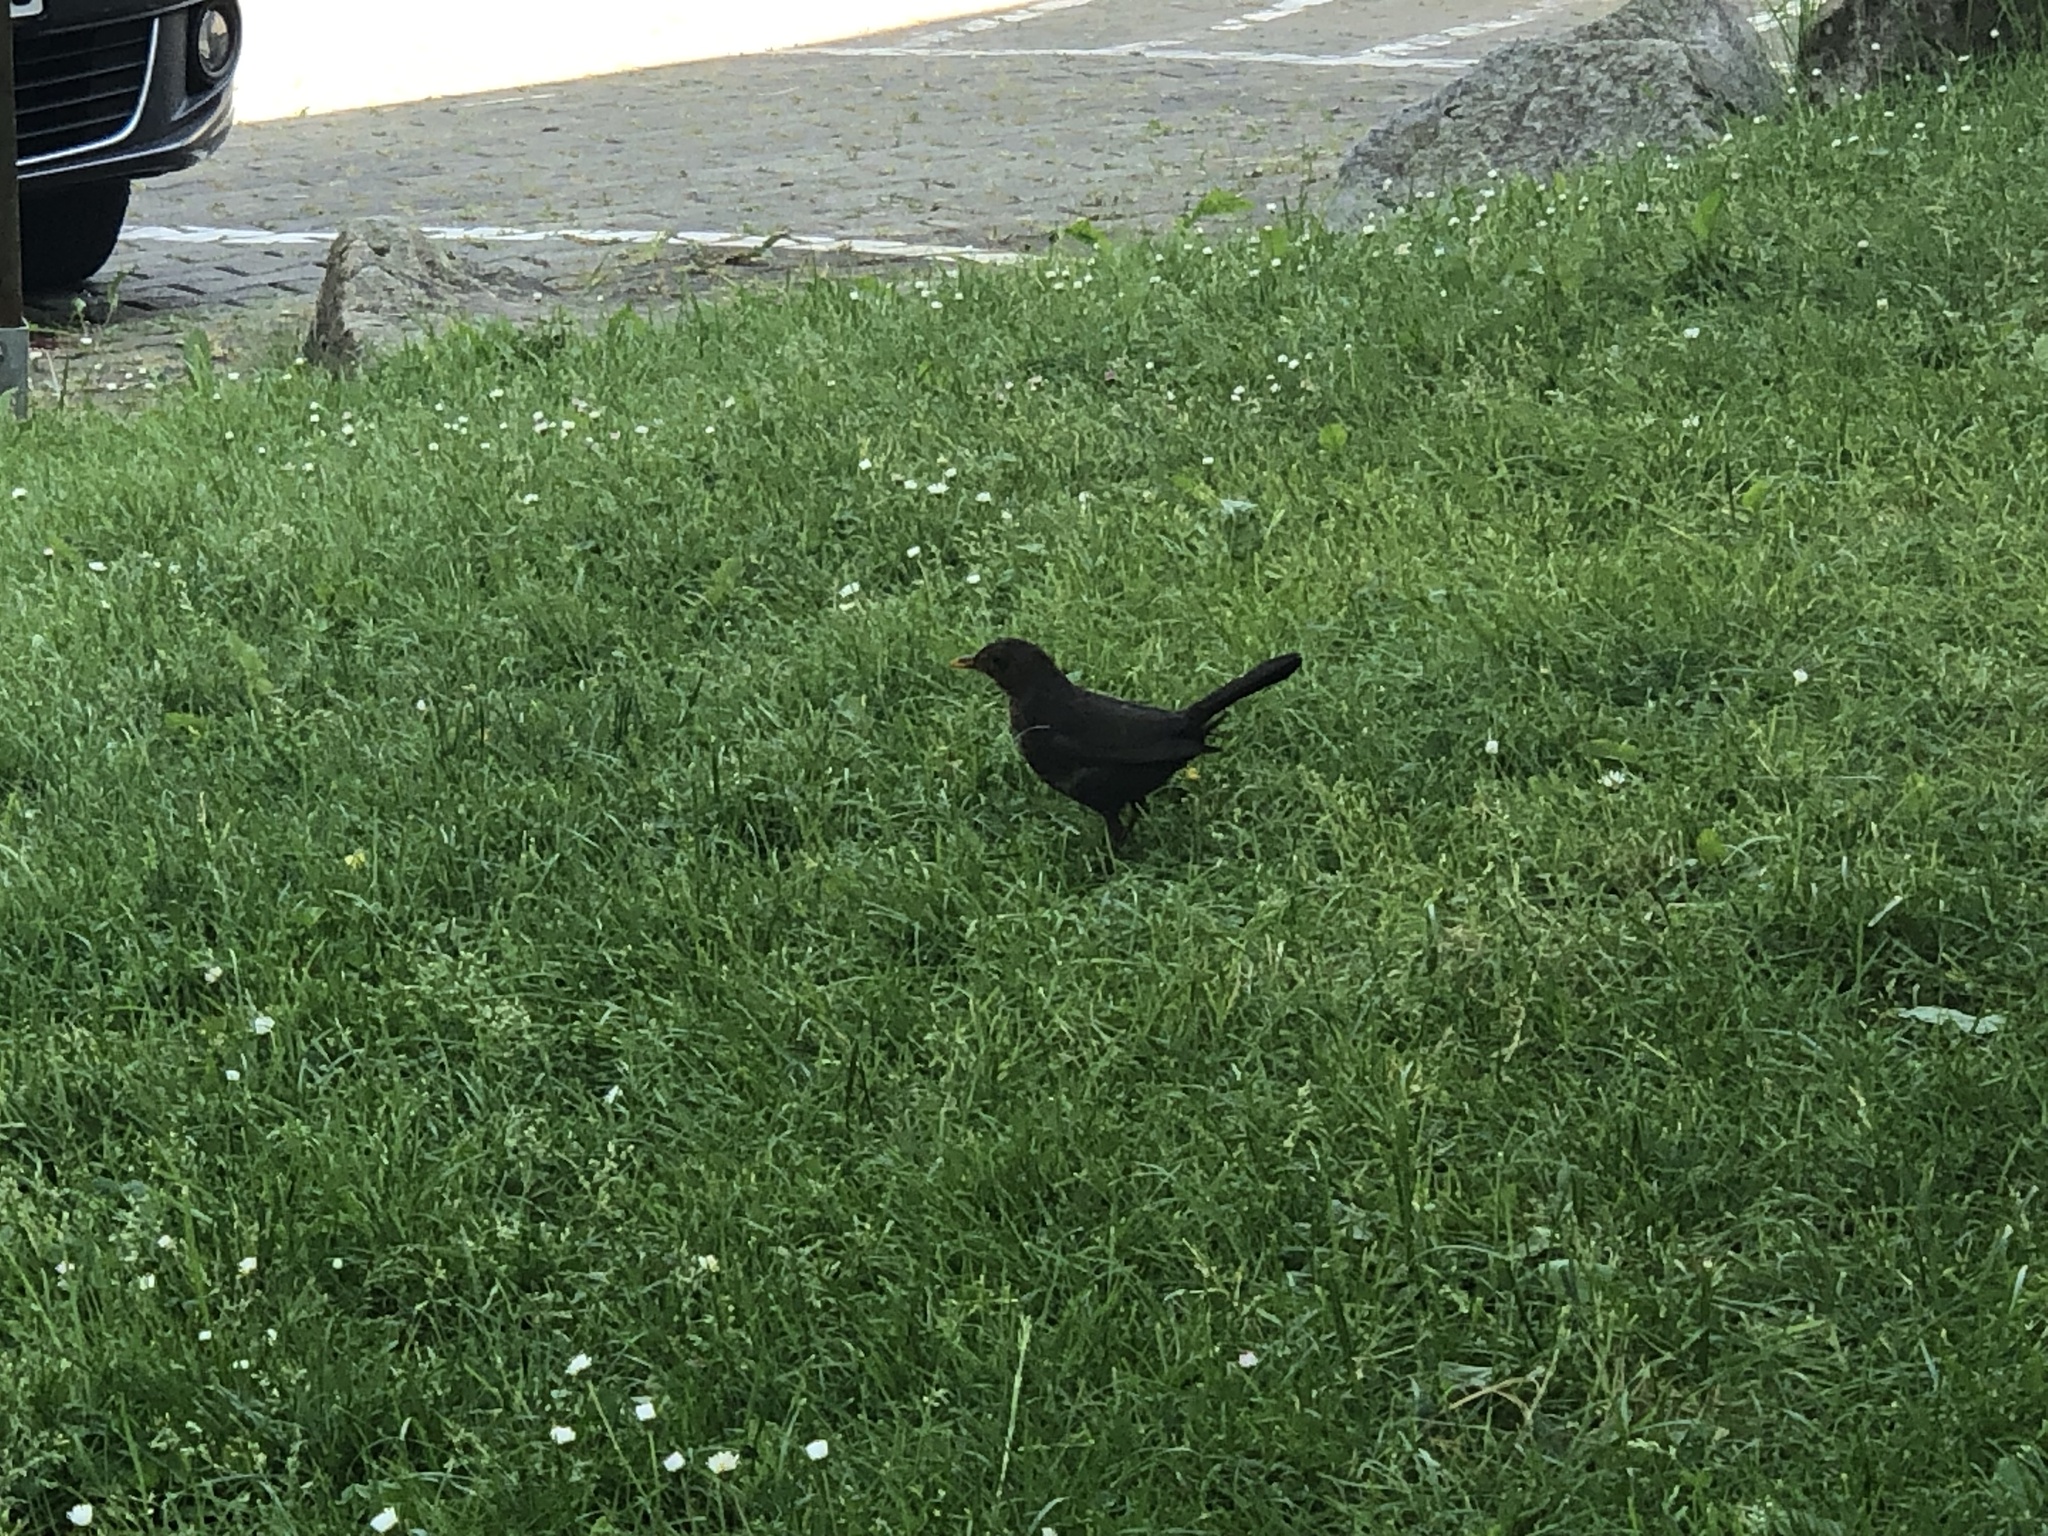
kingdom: Animalia
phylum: Chordata
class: Aves
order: Passeriformes
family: Turdidae
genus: Turdus
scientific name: Turdus merula
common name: Common blackbird
